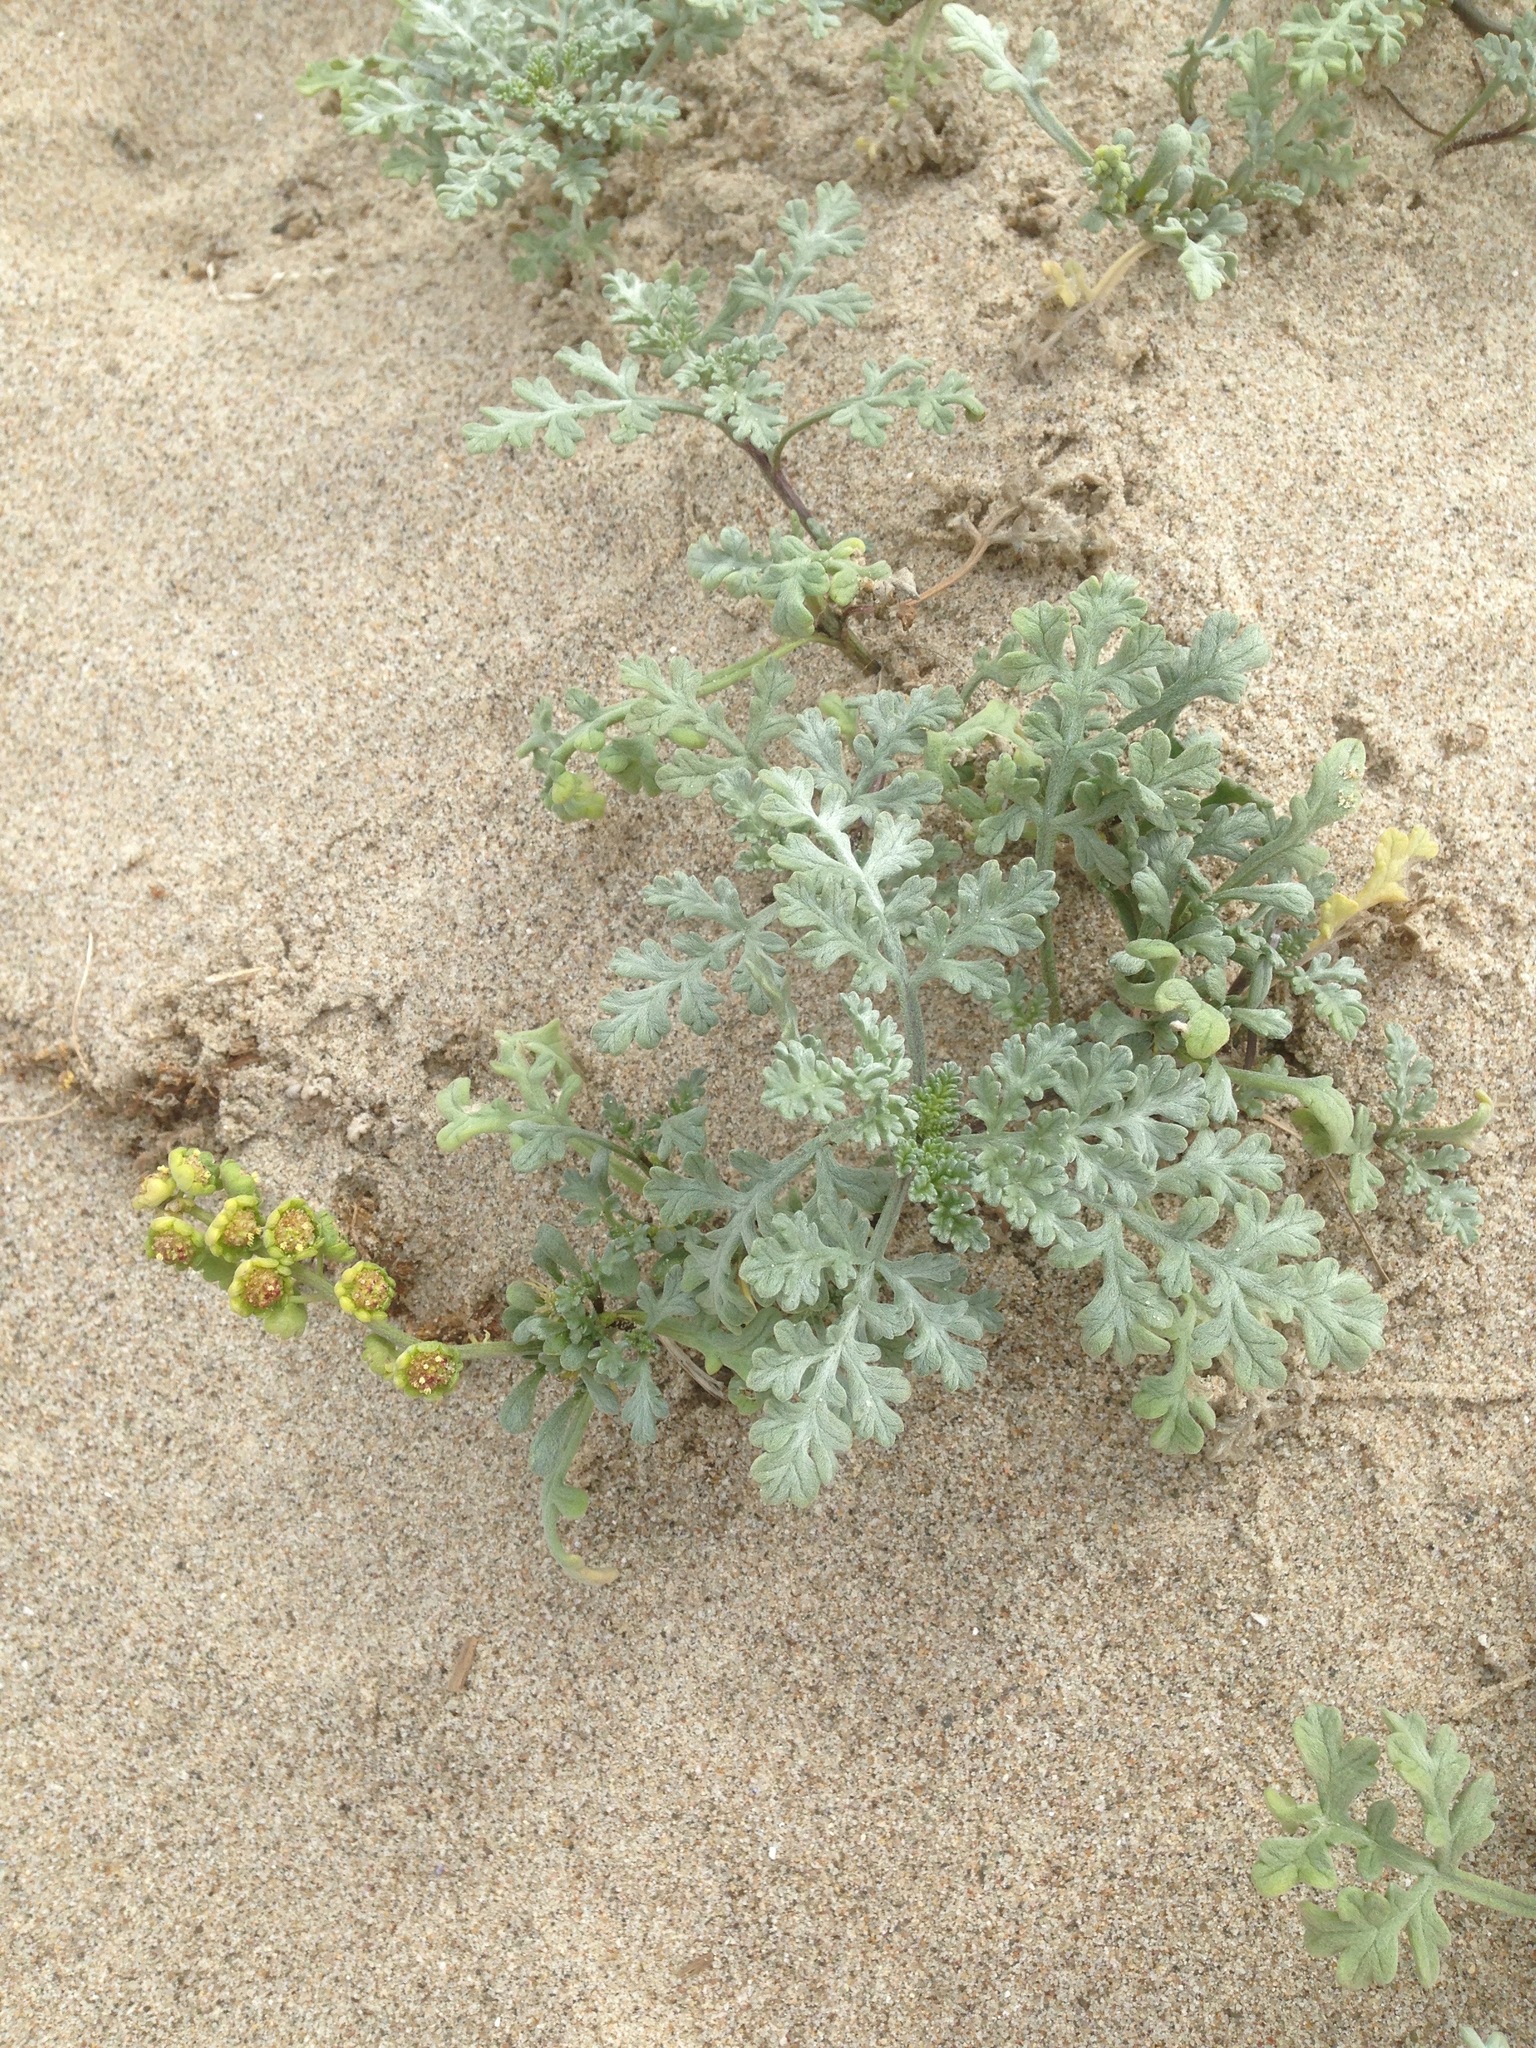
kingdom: Plantae
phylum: Tracheophyta
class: Magnoliopsida
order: Asterales
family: Asteraceae
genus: Ambrosia
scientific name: Ambrosia chamissonis
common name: Beachbur
